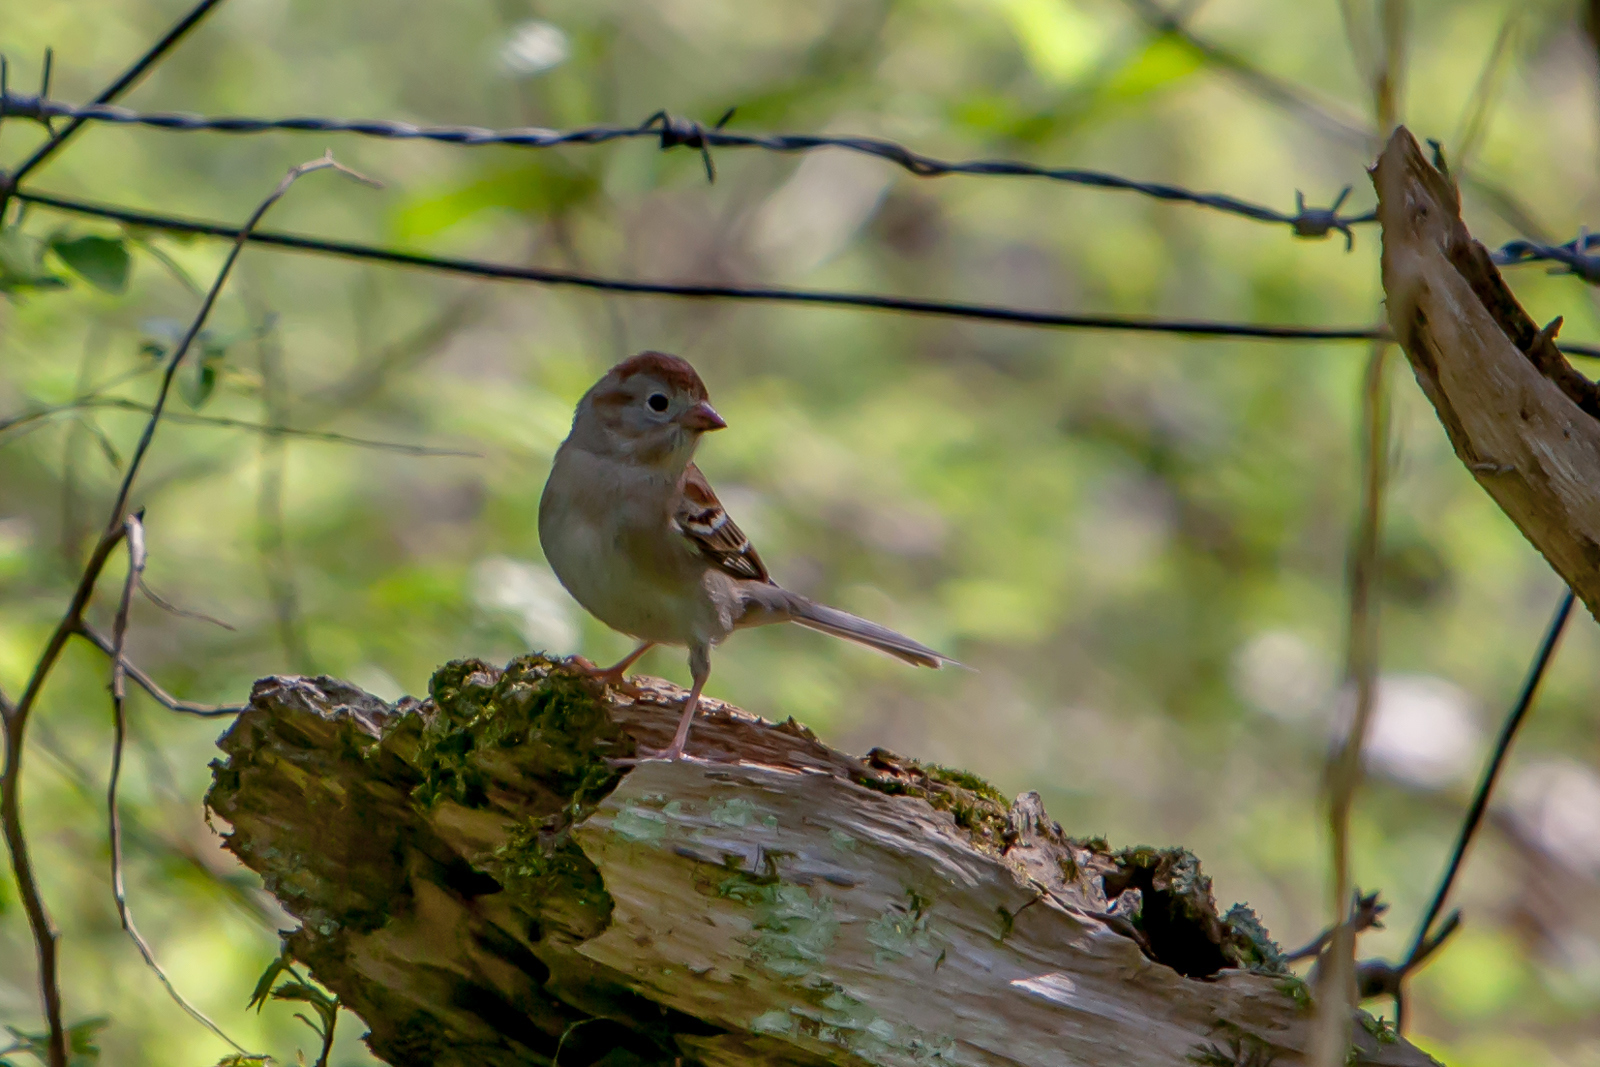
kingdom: Animalia
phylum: Chordata
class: Aves
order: Passeriformes
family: Passerellidae
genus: Spizella
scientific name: Spizella pusilla
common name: Field sparrow
